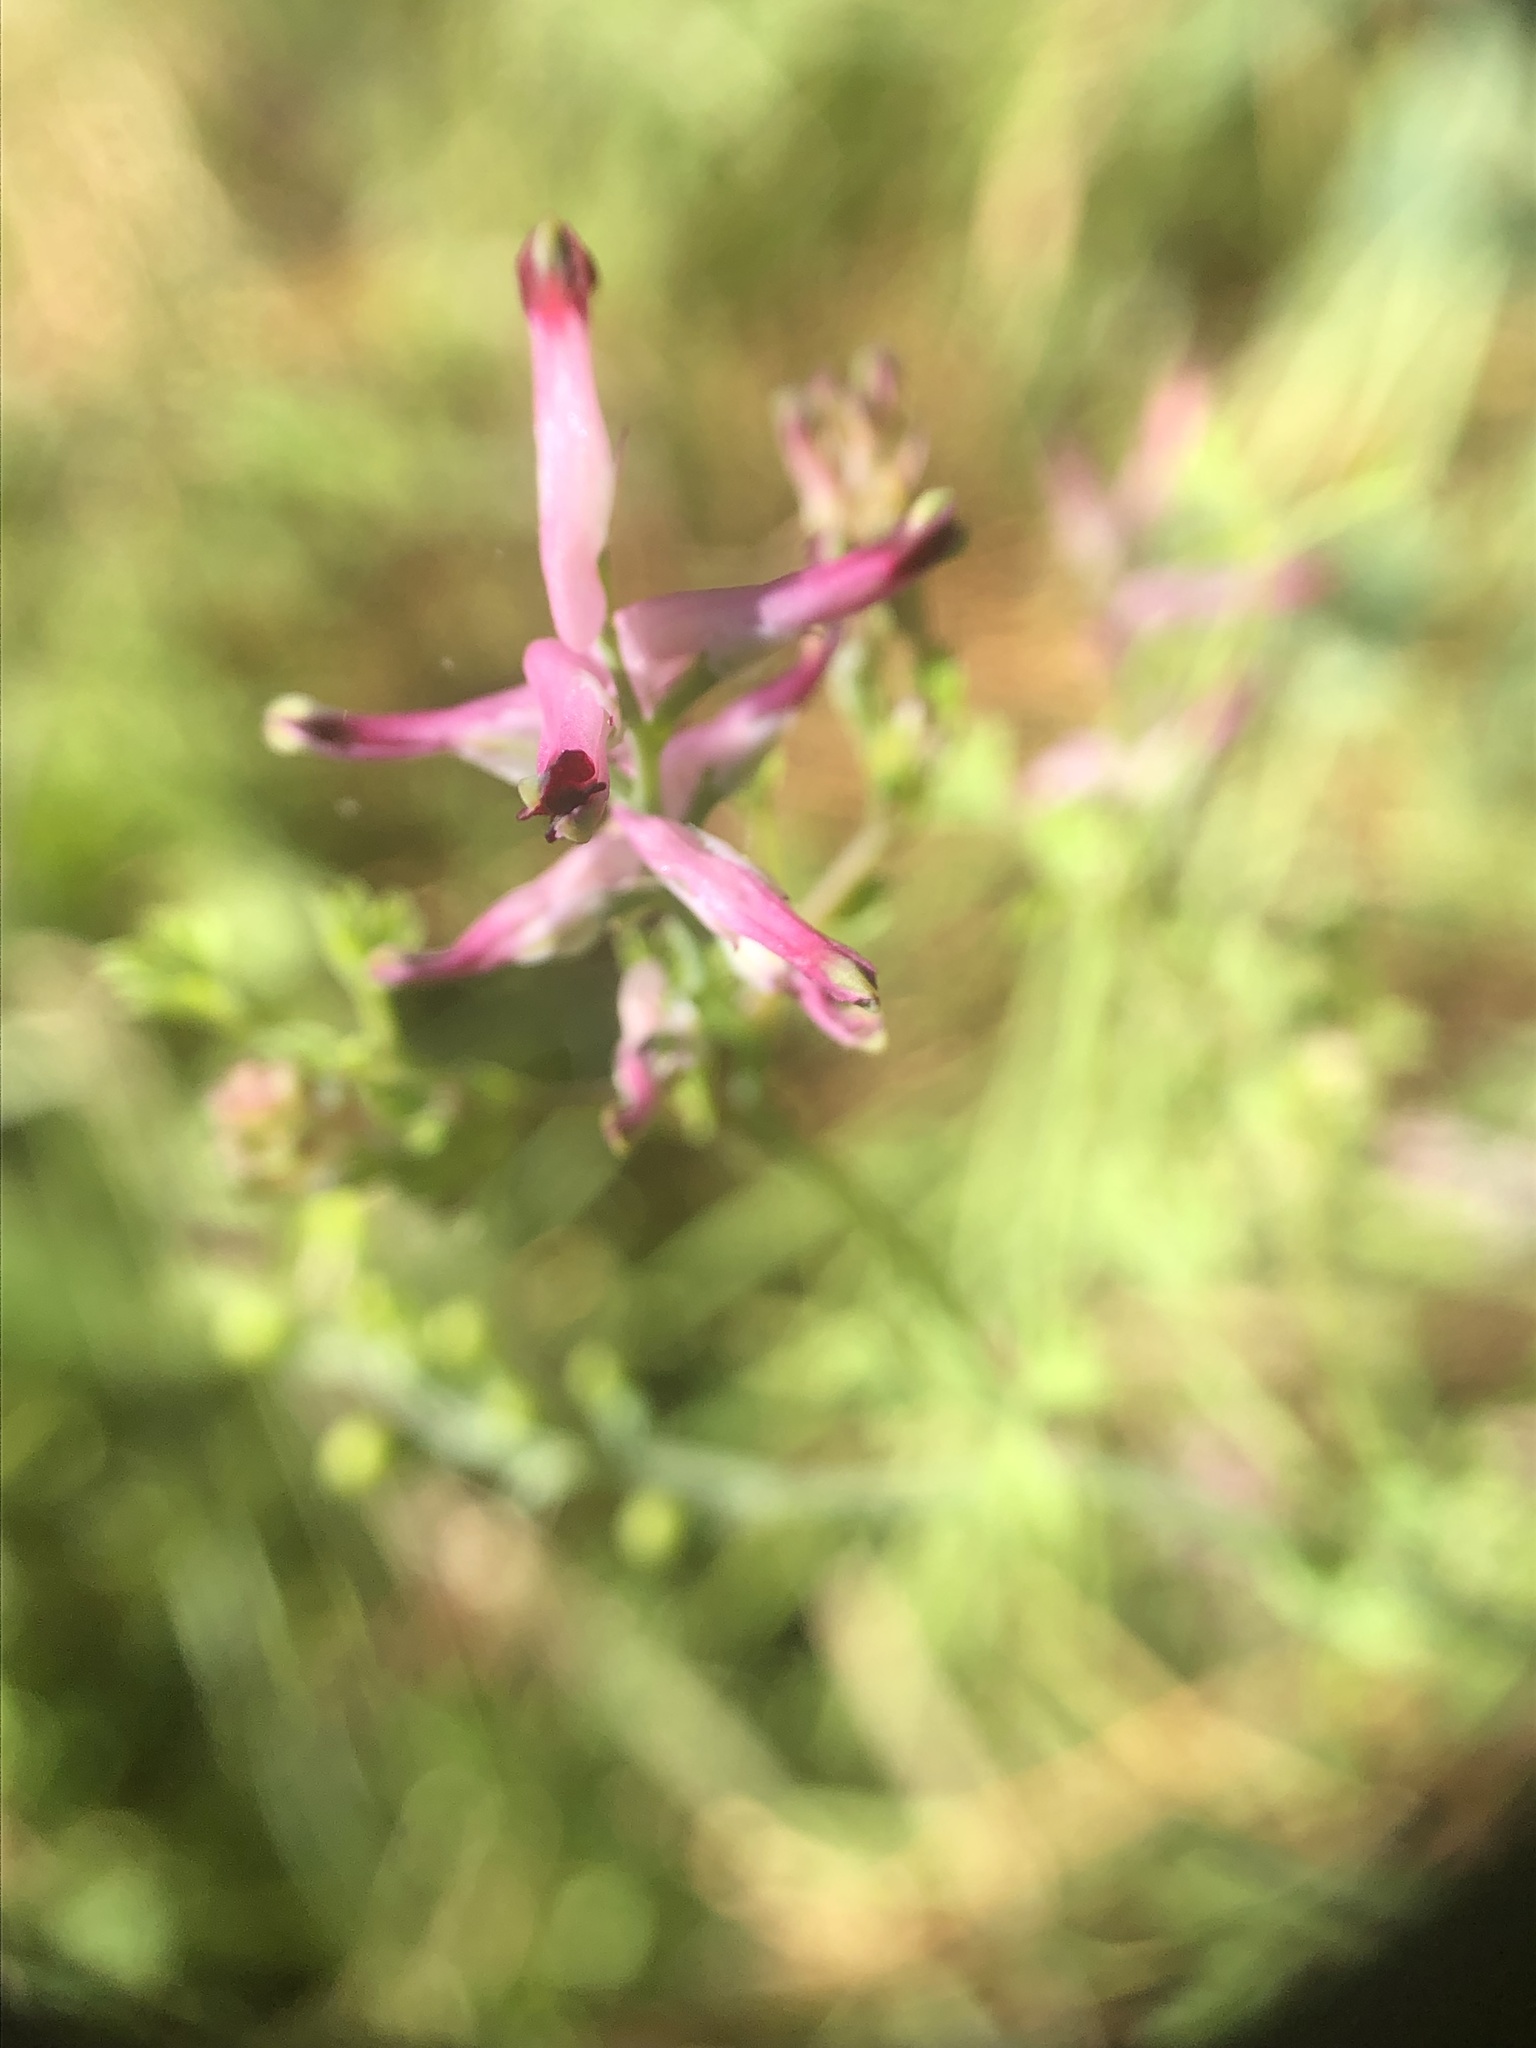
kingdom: Plantae
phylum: Tracheophyta
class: Magnoliopsida
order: Ranunculales
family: Papaveraceae
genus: Fumaria
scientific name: Fumaria muralis
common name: Common ramping-fumitory
